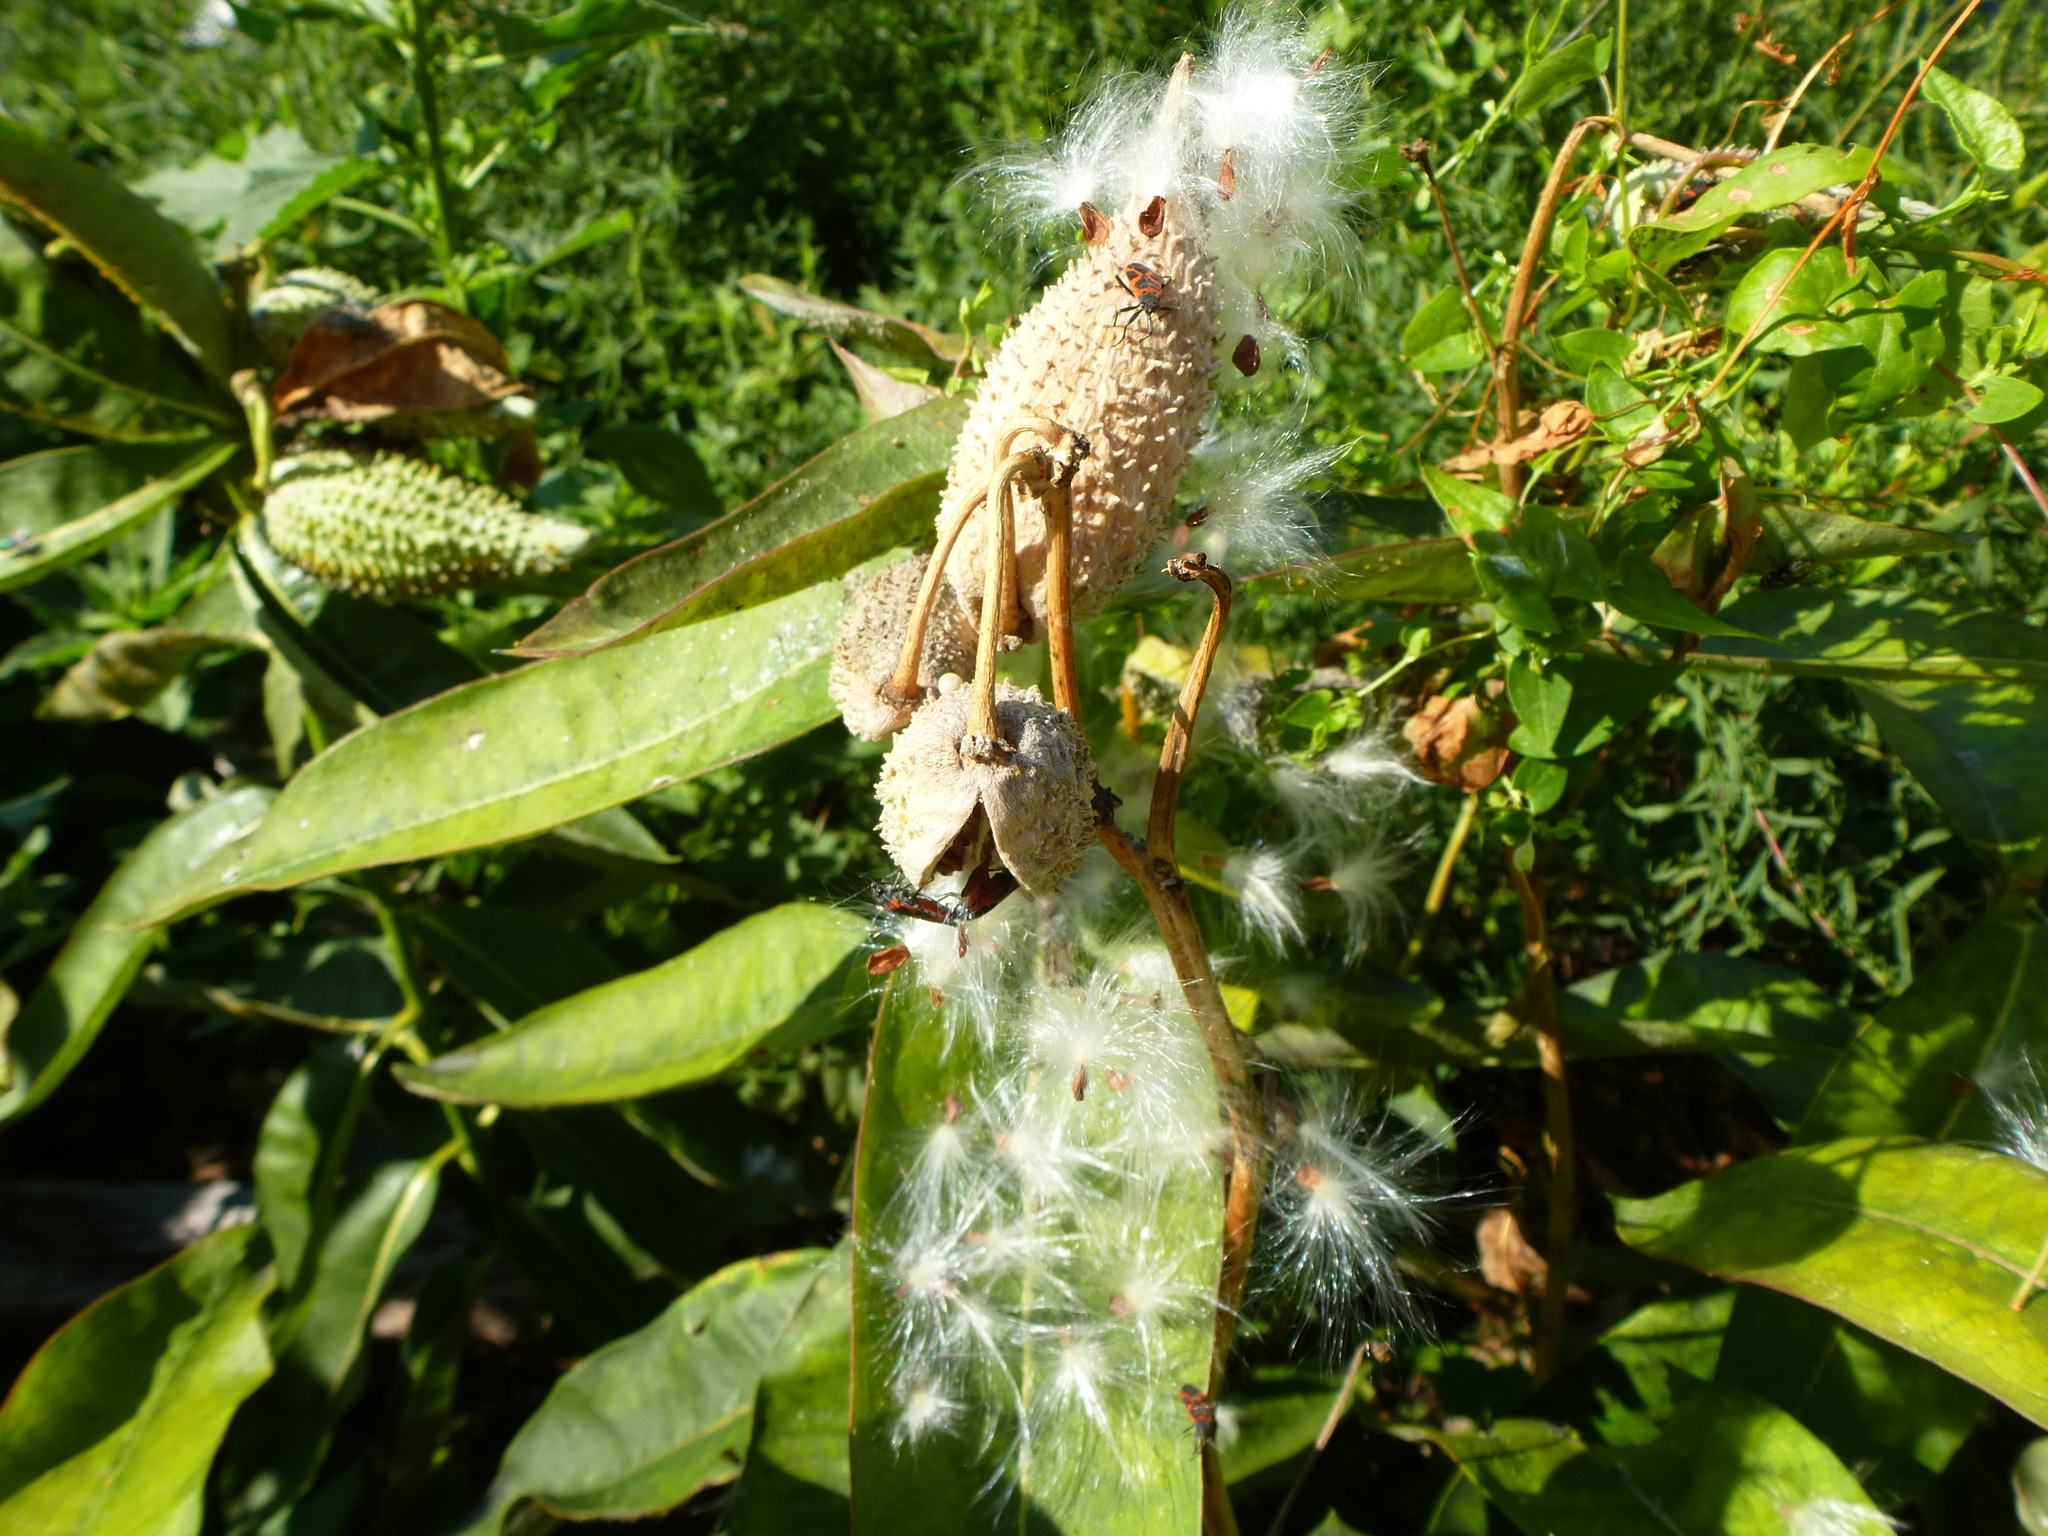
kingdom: Plantae
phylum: Tracheophyta
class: Magnoliopsida
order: Gentianales
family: Apocynaceae
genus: Asclepias
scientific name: Asclepias syriaca
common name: Common milkweed
